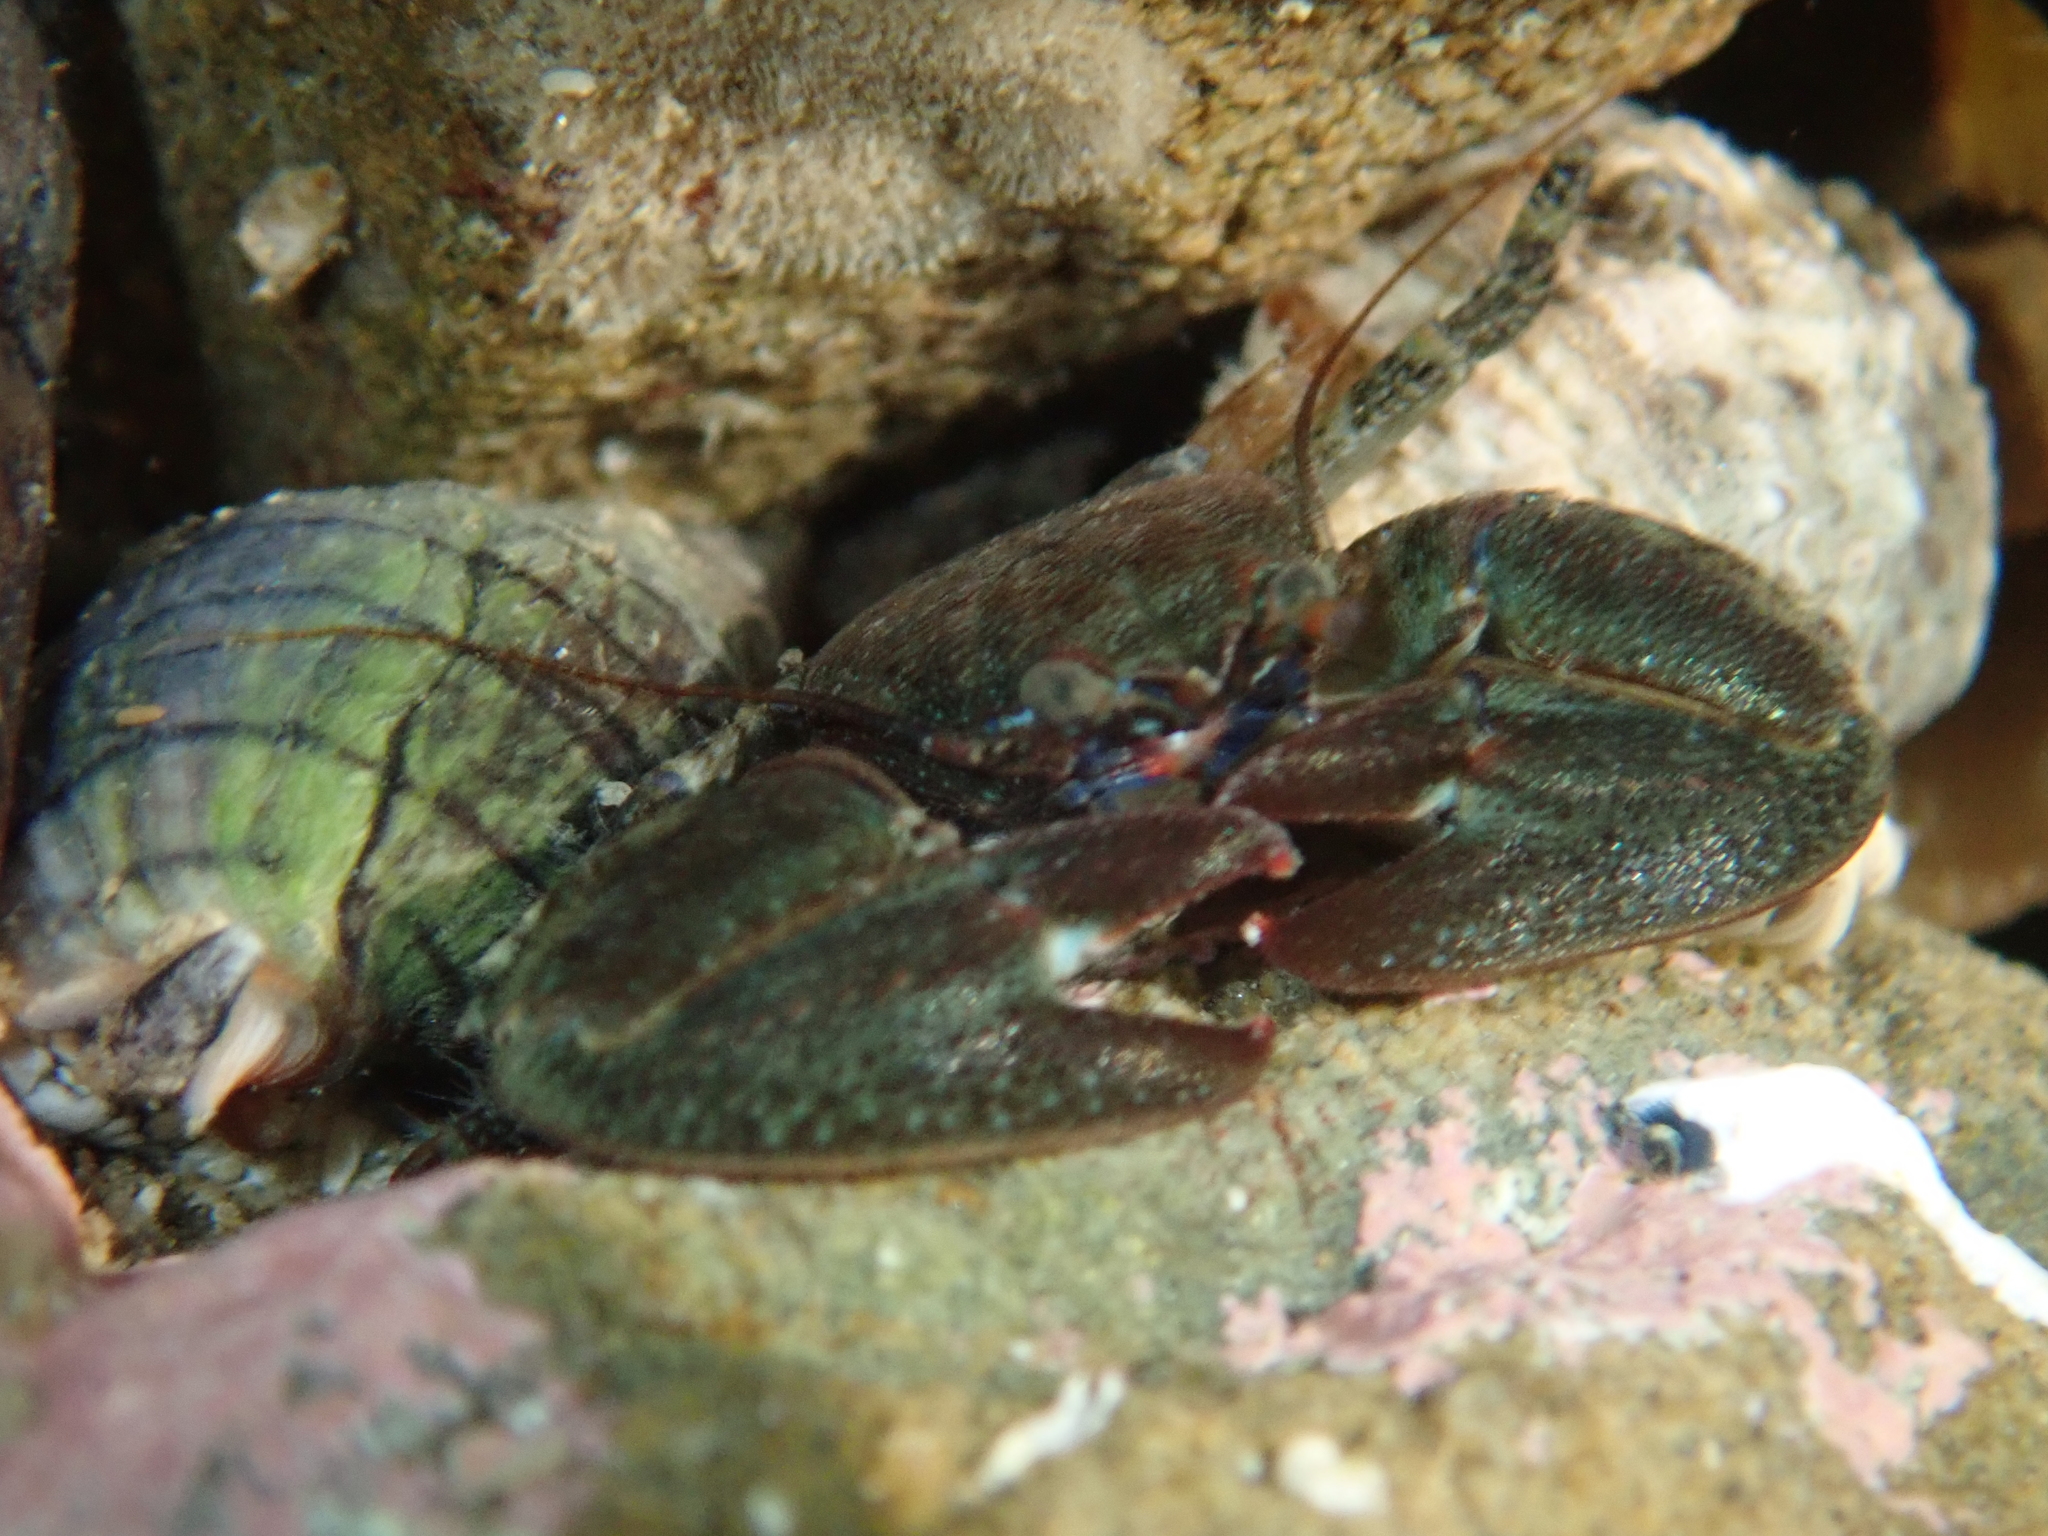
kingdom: Animalia
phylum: Arthropoda
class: Malacostraca
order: Decapoda
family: Porcellanidae
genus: Petrolisthes
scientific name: Petrolisthes elongatus
